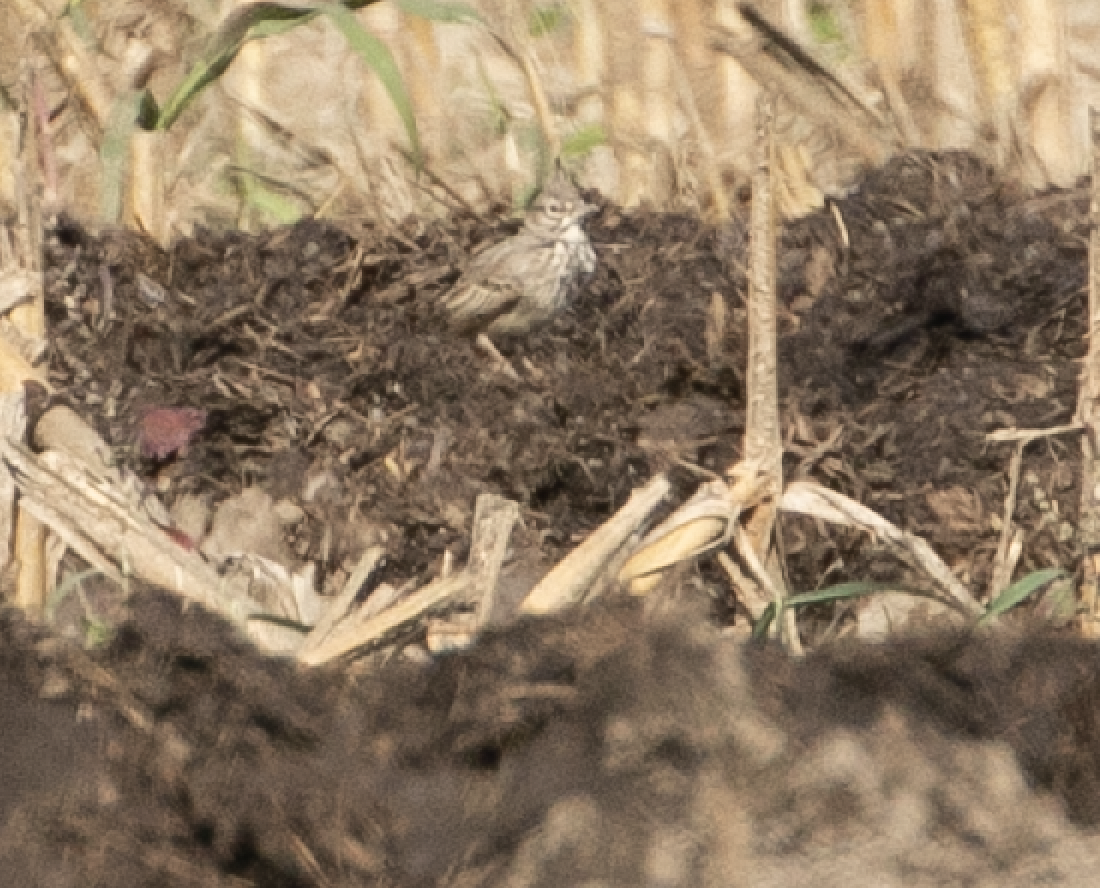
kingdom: Animalia
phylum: Chordata
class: Aves
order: Passeriformes
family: Alaudidae
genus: Galerida
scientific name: Galerida cristata
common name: Crested lark
